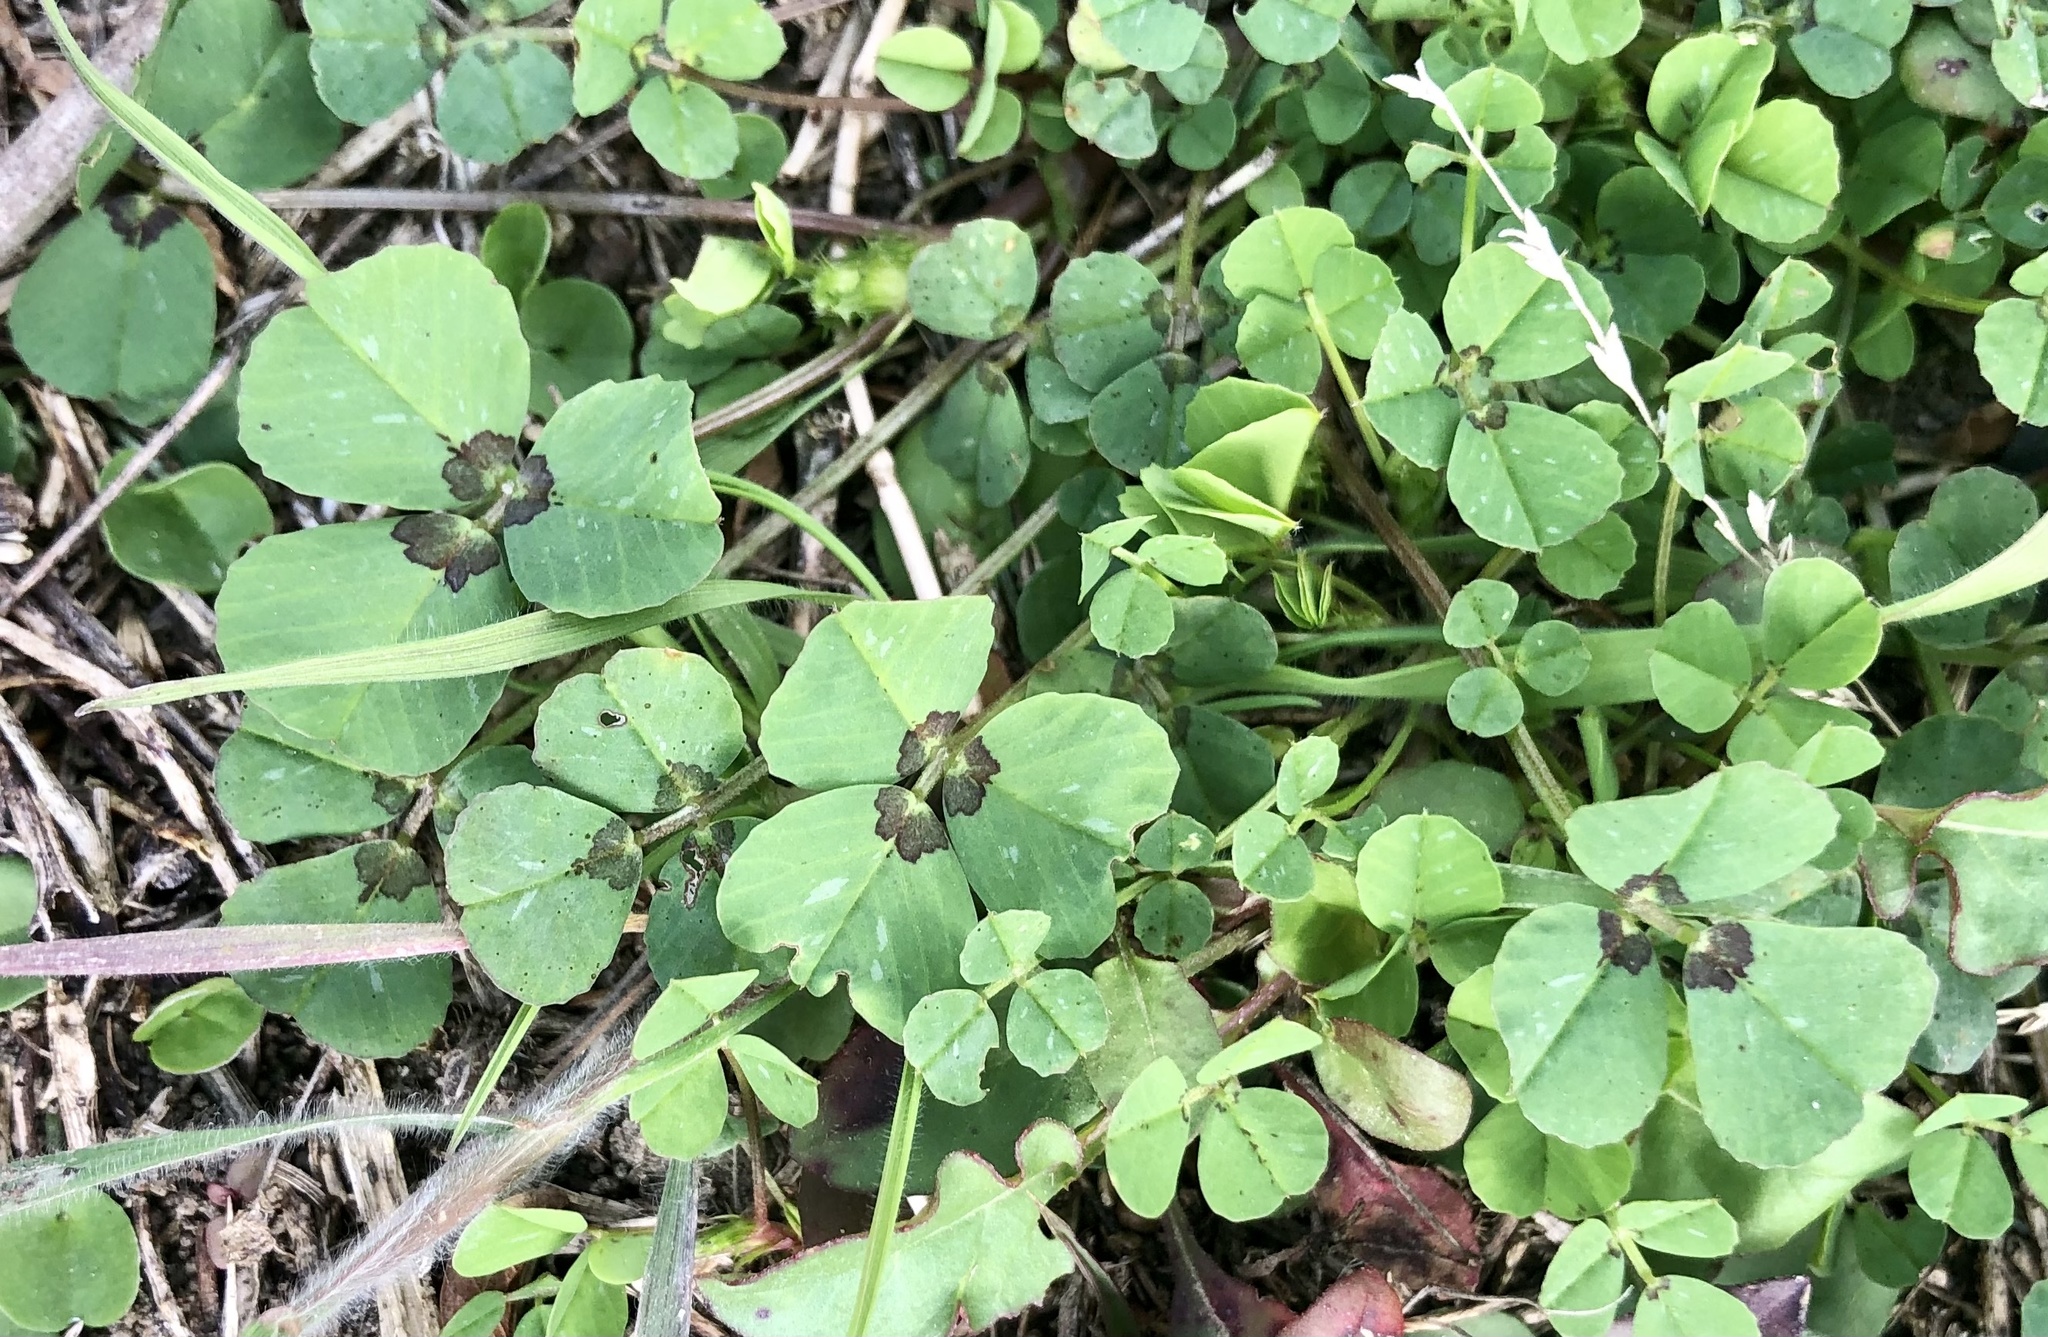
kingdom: Plantae
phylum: Tracheophyta
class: Magnoliopsida
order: Fabales
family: Fabaceae
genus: Medicago
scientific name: Medicago arabica
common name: Spotted medick
